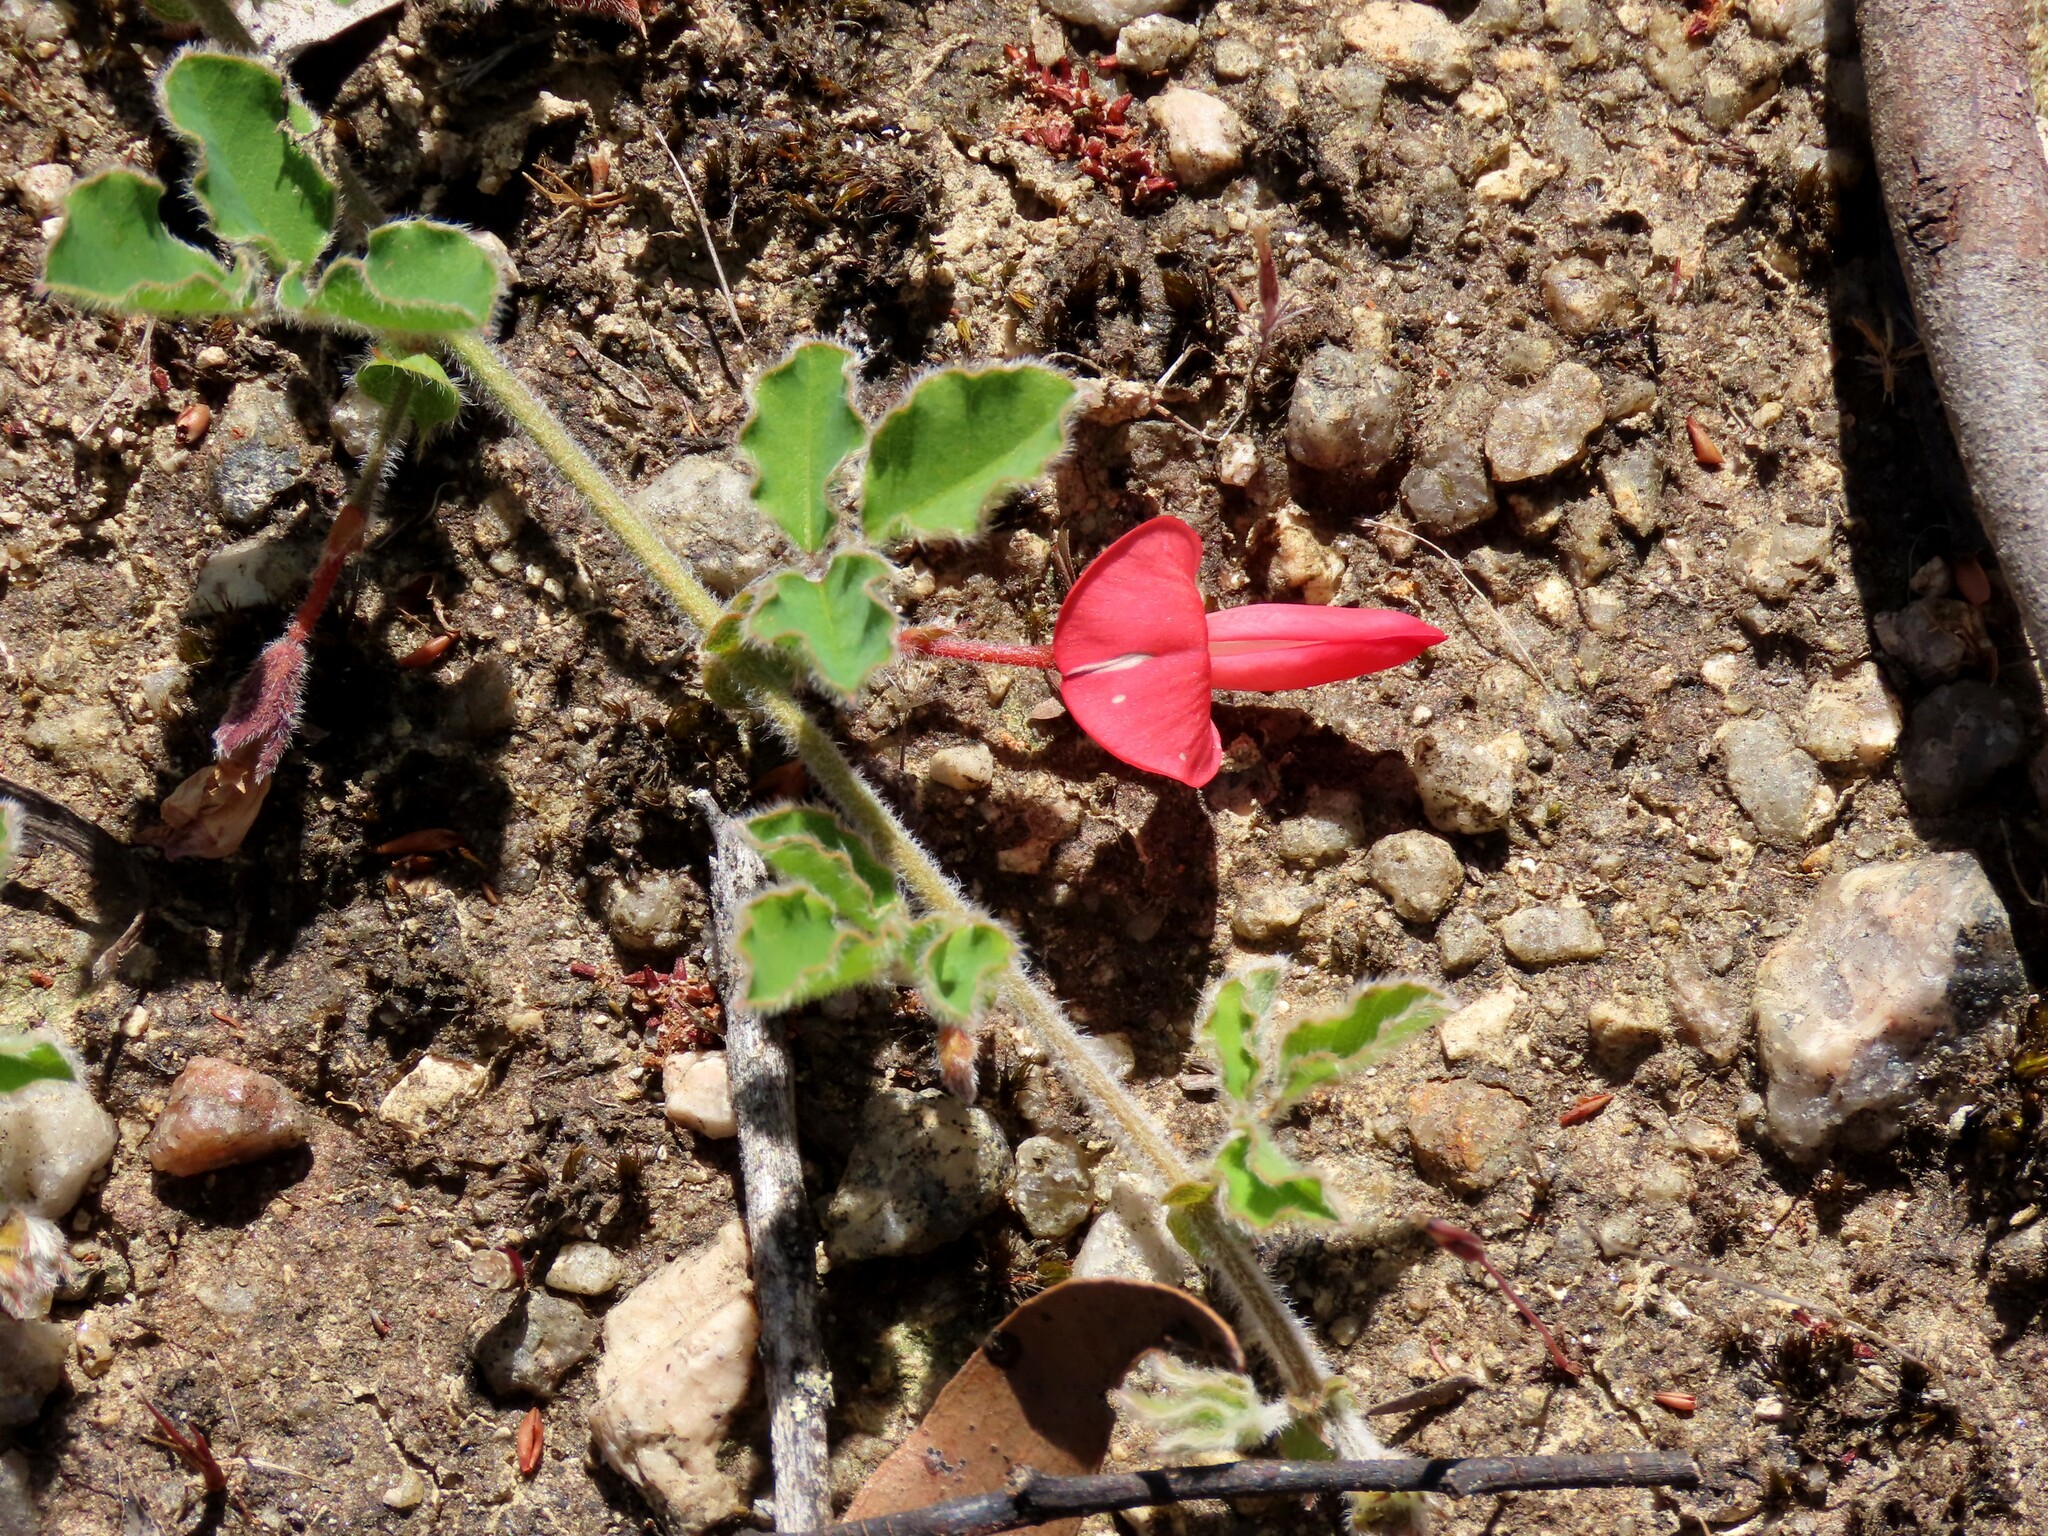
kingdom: Plantae
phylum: Tracheophyta
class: Magnoliopsida
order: Fabales
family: Fabaceae
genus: Kennedia
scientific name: Kennedia prostrata
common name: Running-postman
